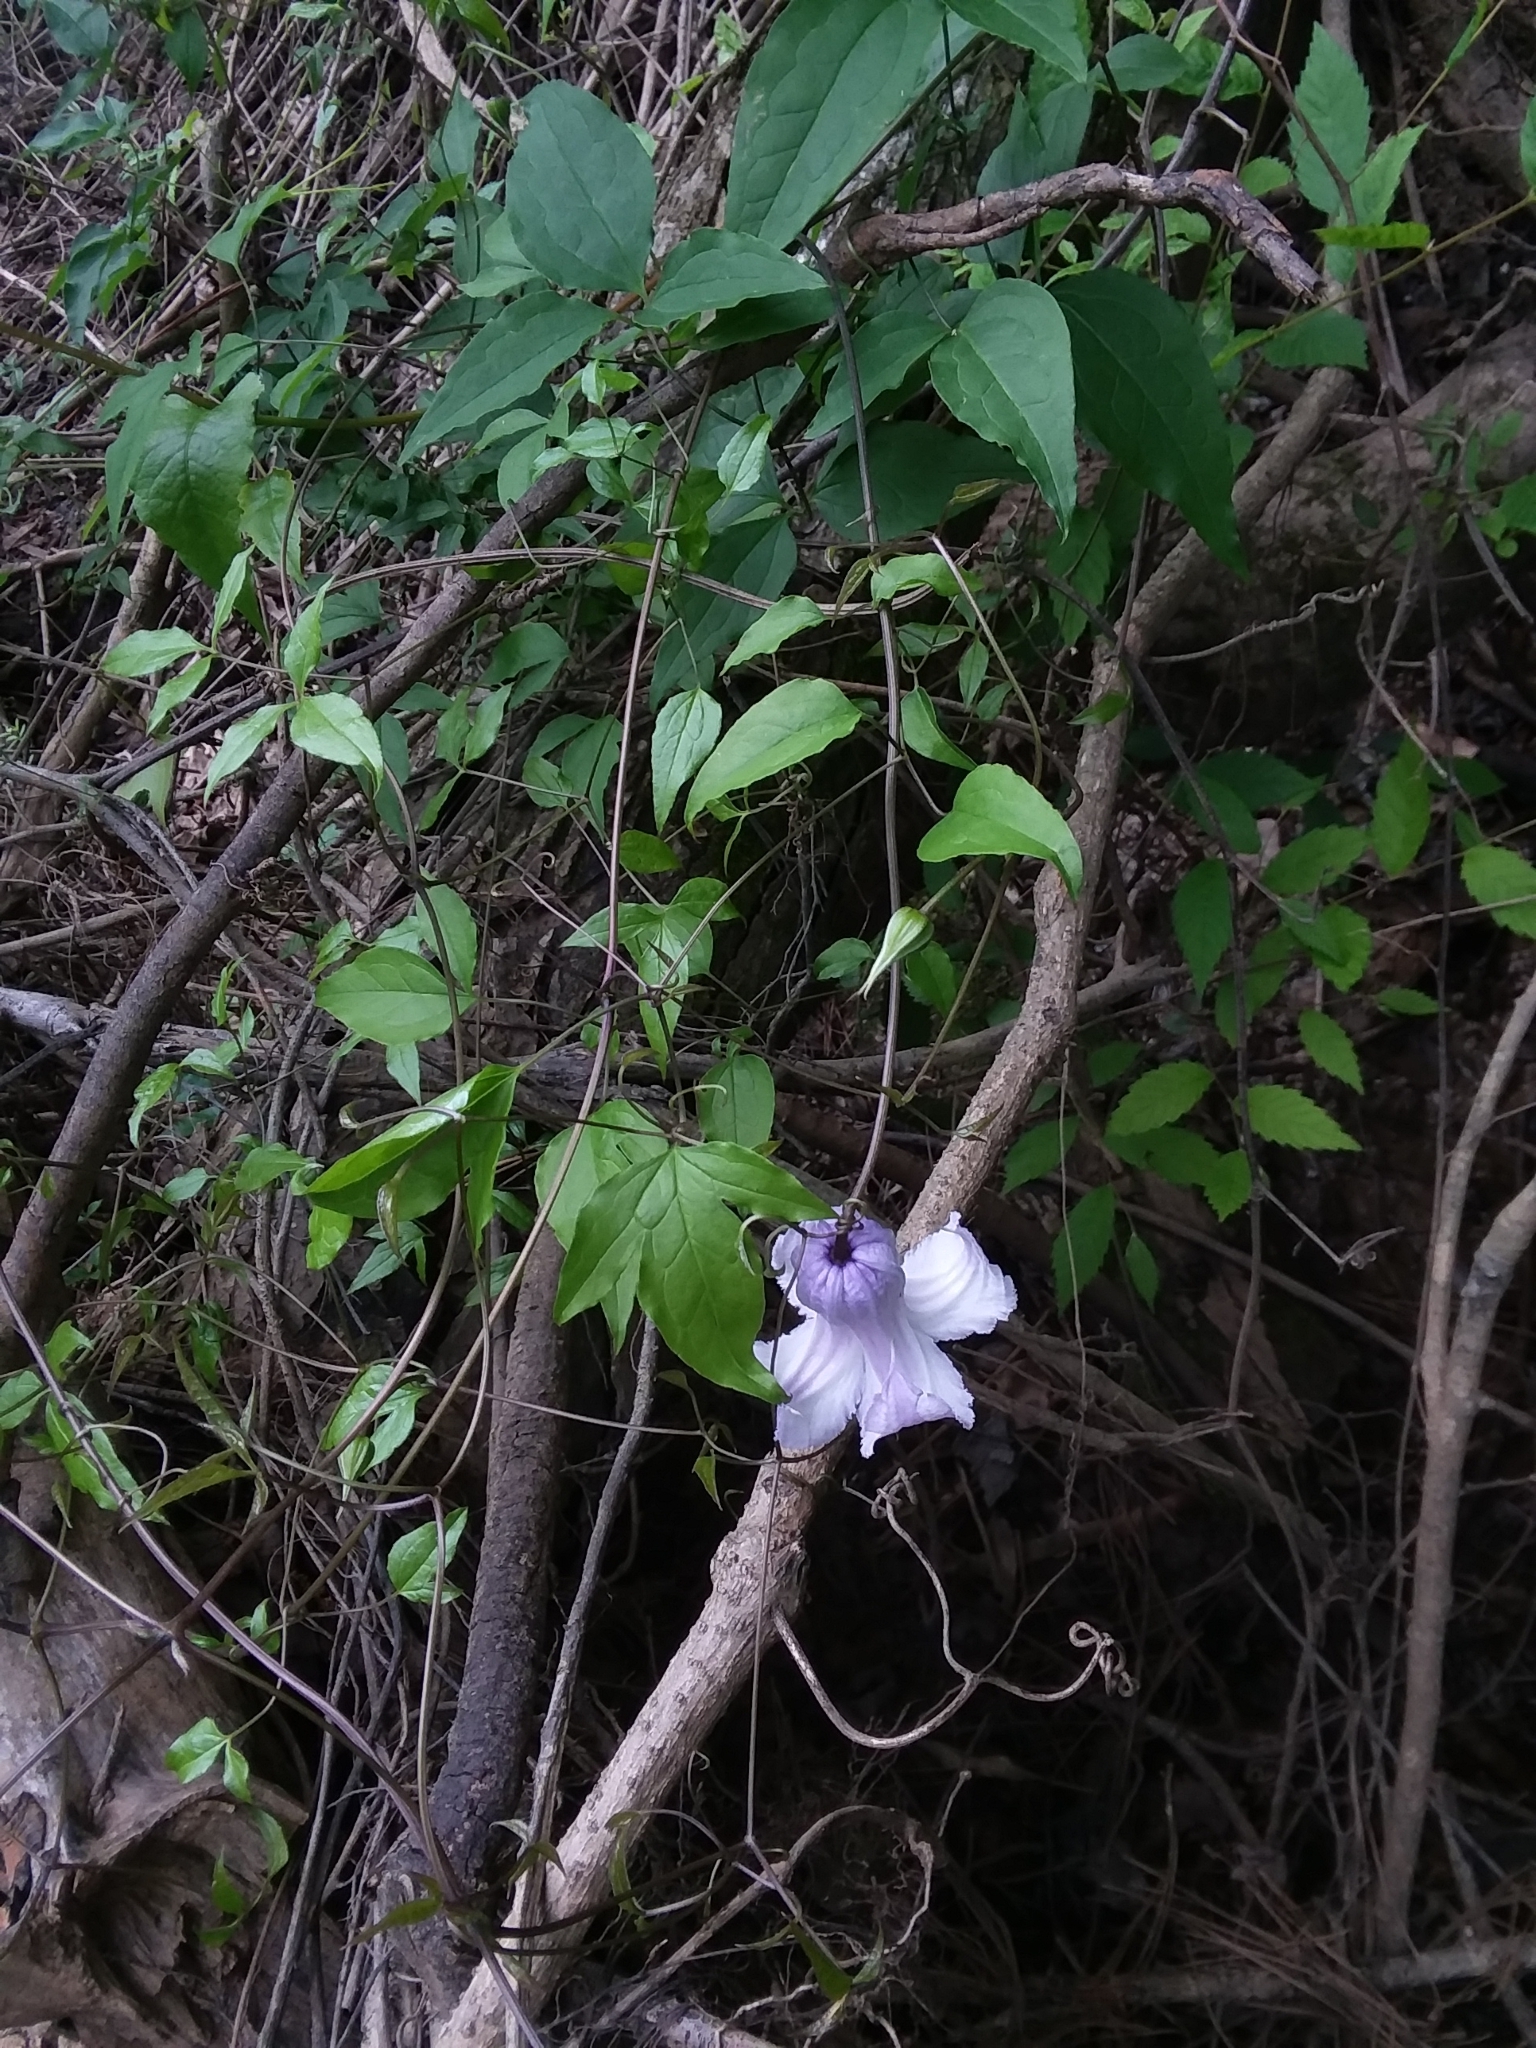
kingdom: Plantae
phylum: Tracheophyta
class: Magnoliopsida
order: Ranunculales
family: Ranunculaceae
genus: Clematis
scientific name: Clematis crispa
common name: Curly clematis
